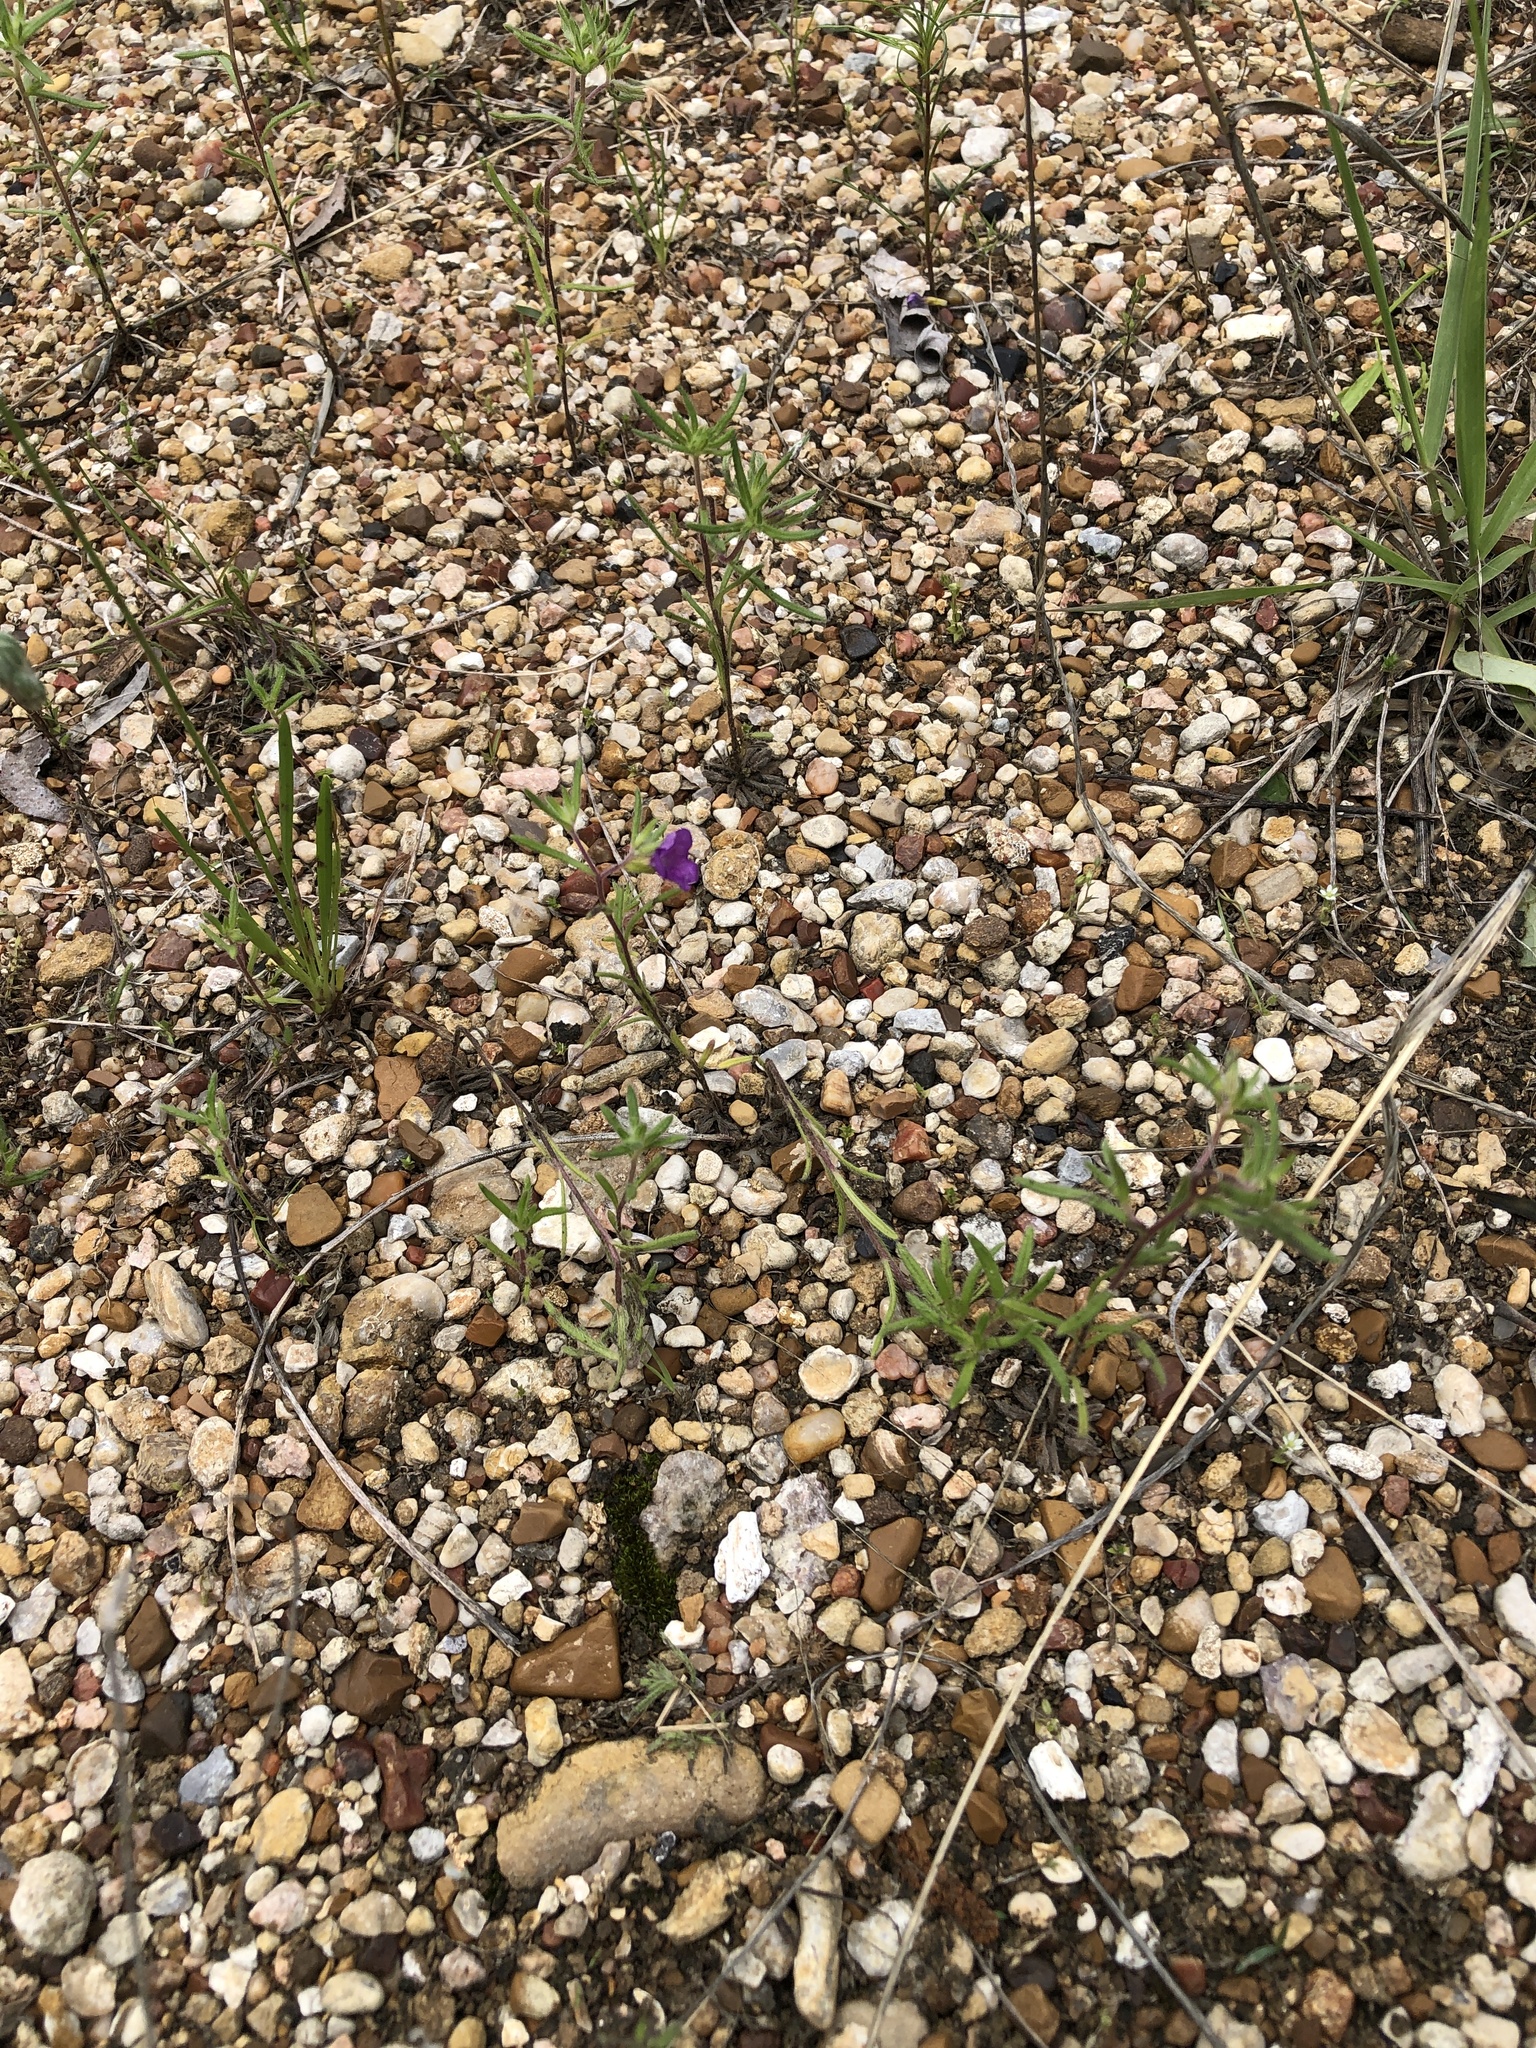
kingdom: Plantae
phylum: Tracheophyta
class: Magnoliopsida
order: Boraginales
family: Namaceae
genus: Nama
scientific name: Nama hispida
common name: Bristly nama
